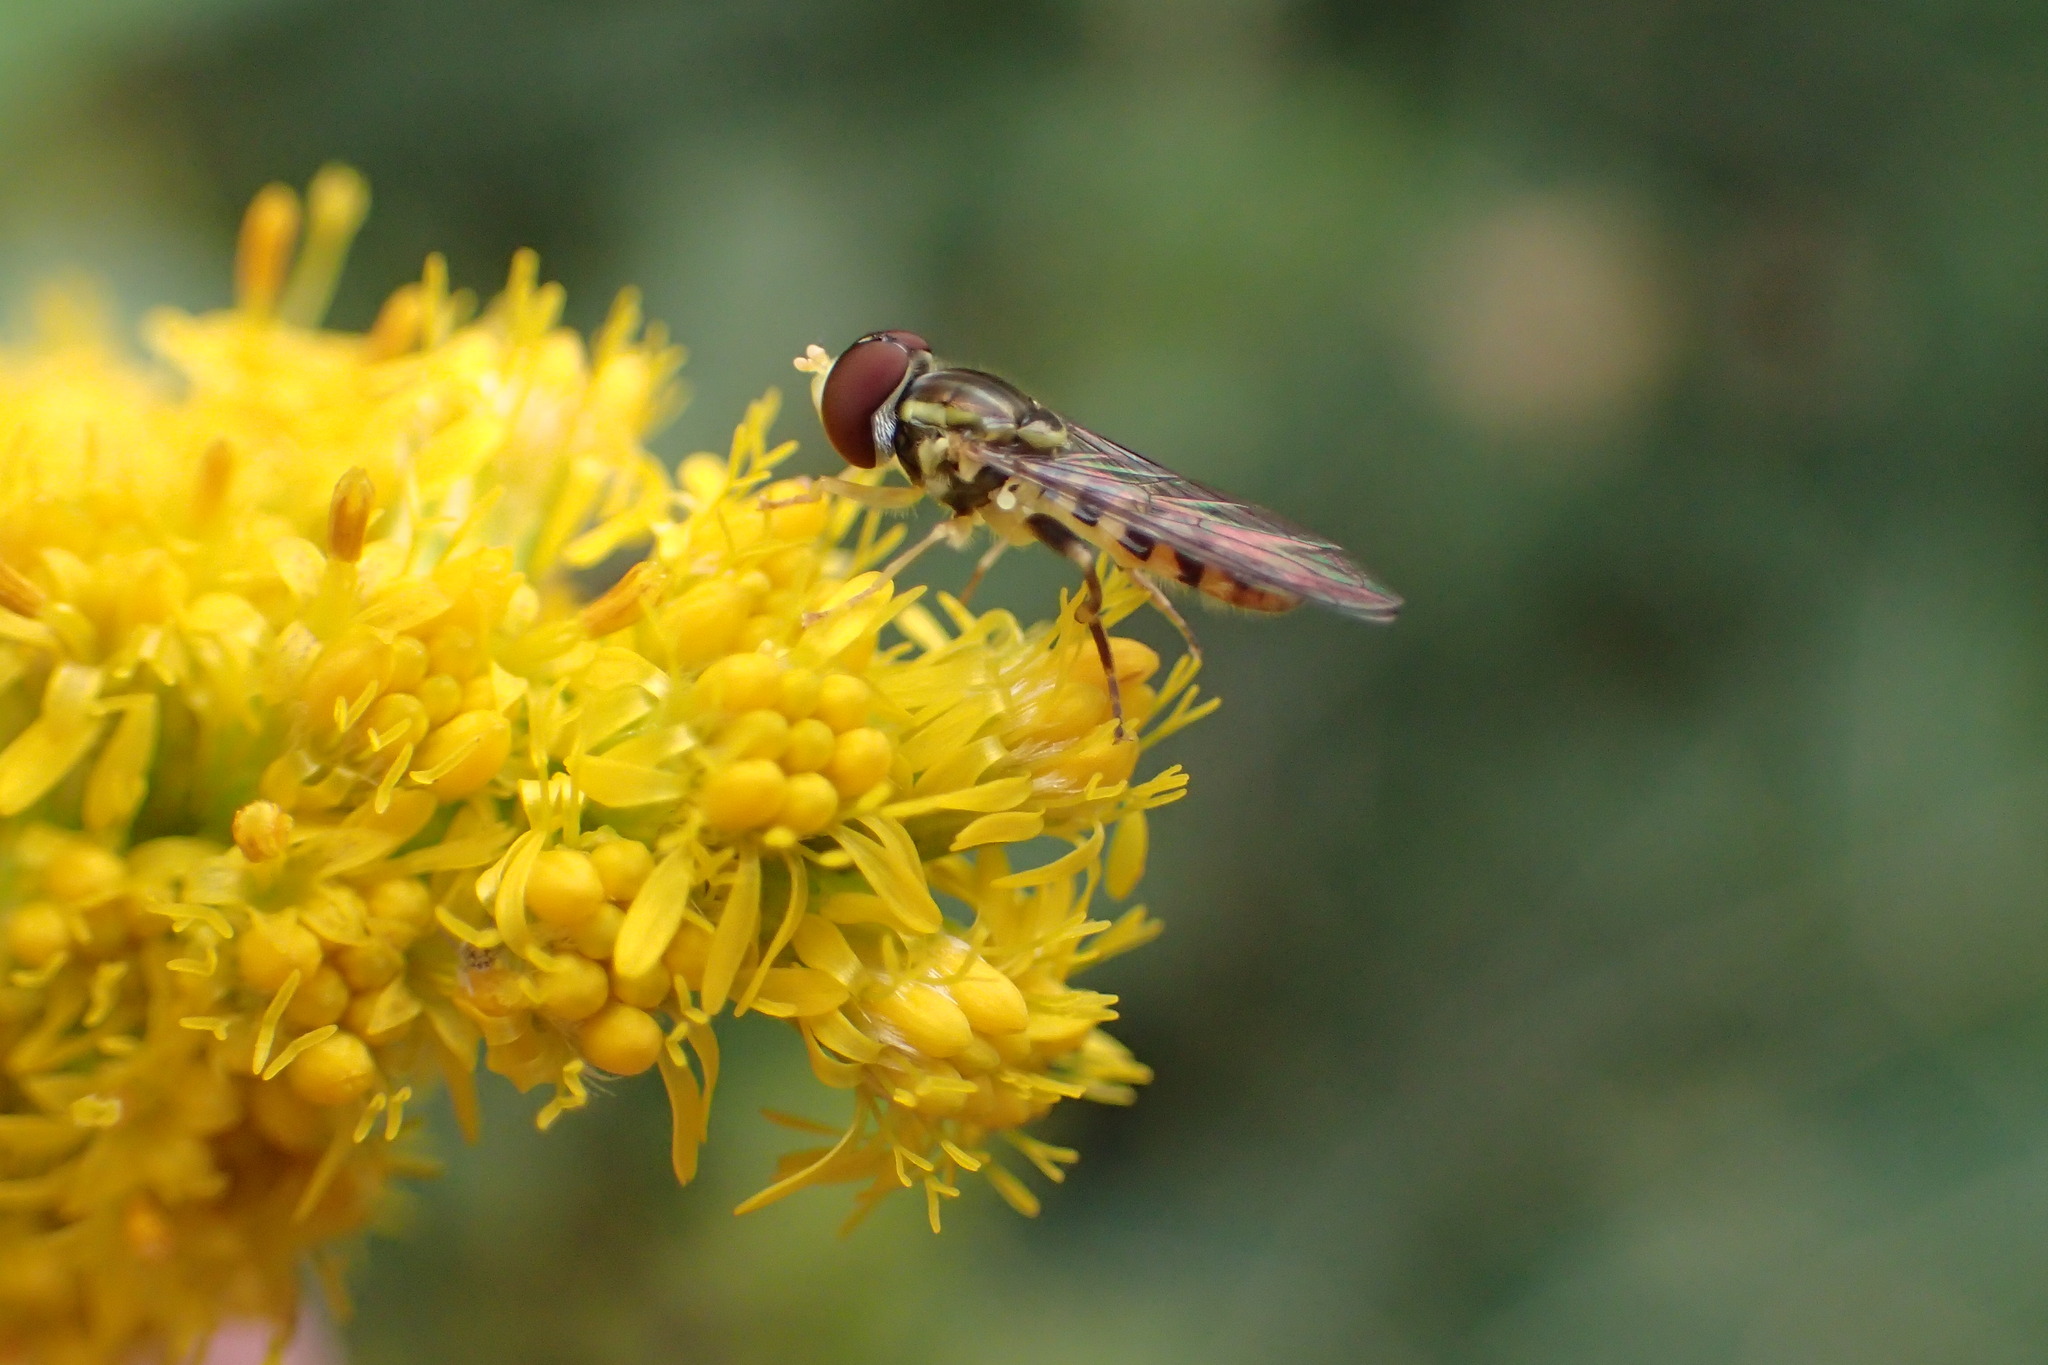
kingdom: Animalia
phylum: Arthropoda
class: Insecta
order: Diptera
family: Syrphidae
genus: Toxomerus
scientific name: Toxomerus geminatus
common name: Eastern calligrapher
